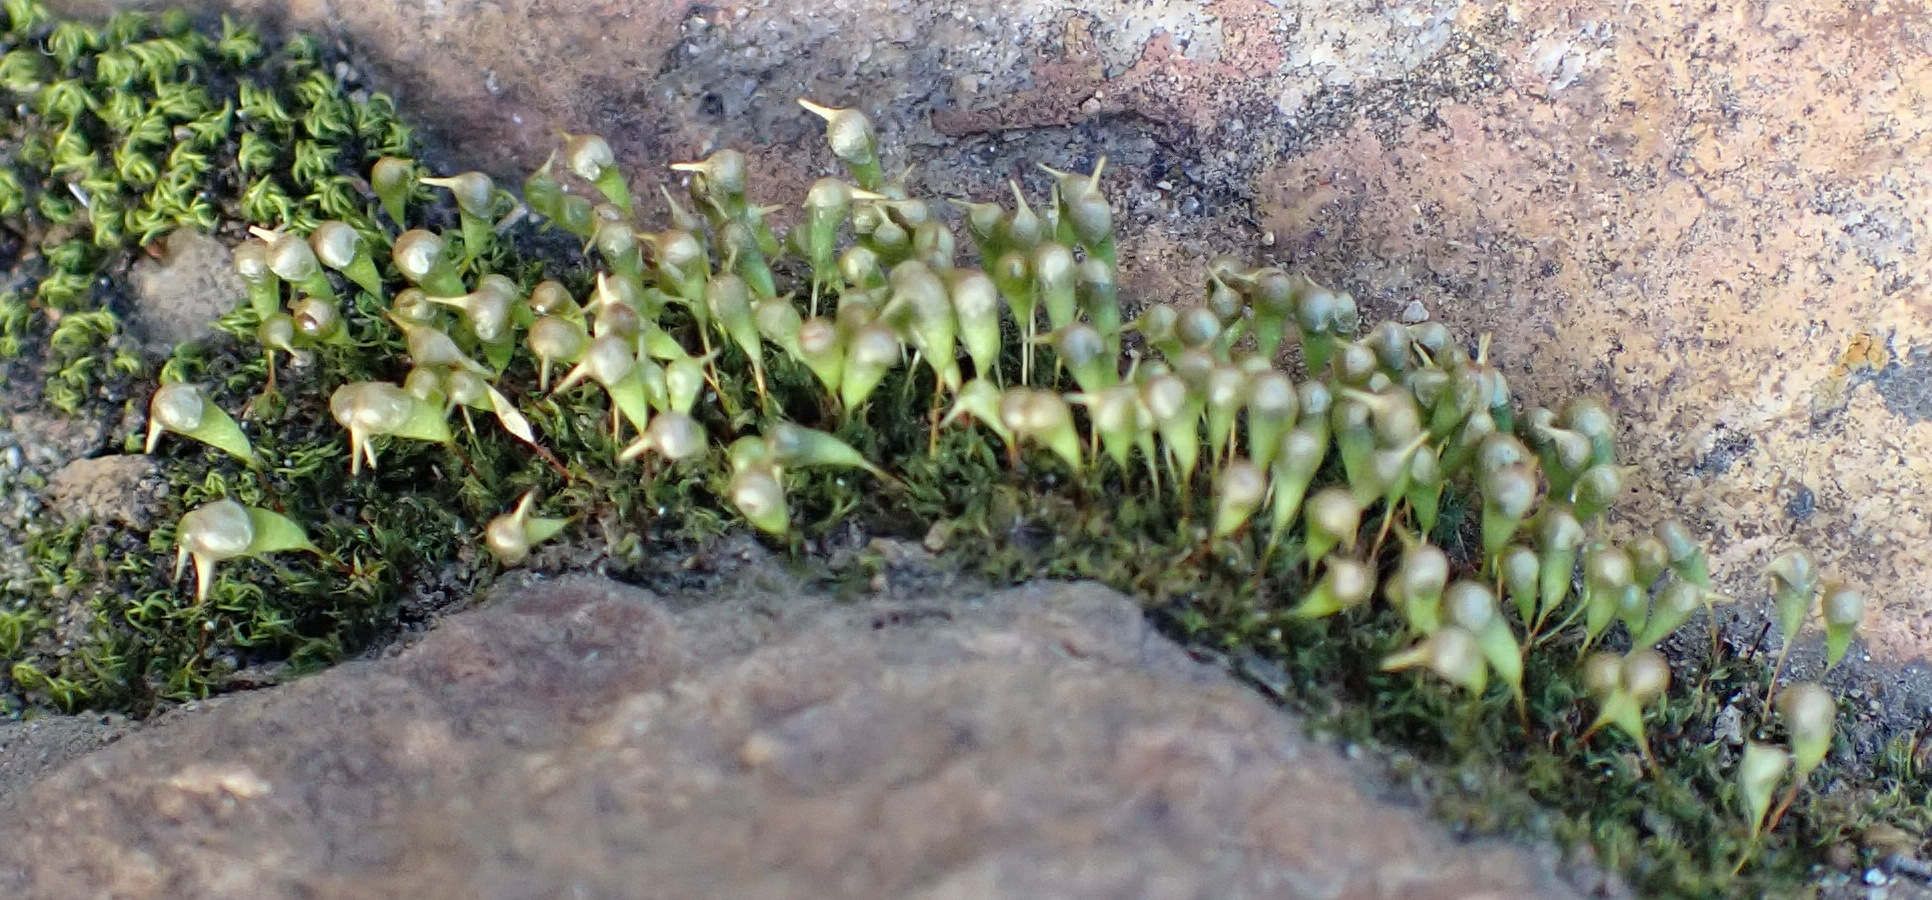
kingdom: Plantae
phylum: Bryophyta
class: Bryopsida
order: Funariales
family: Funariaceae
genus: Entosthodon
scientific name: Entosthodon clavatus
